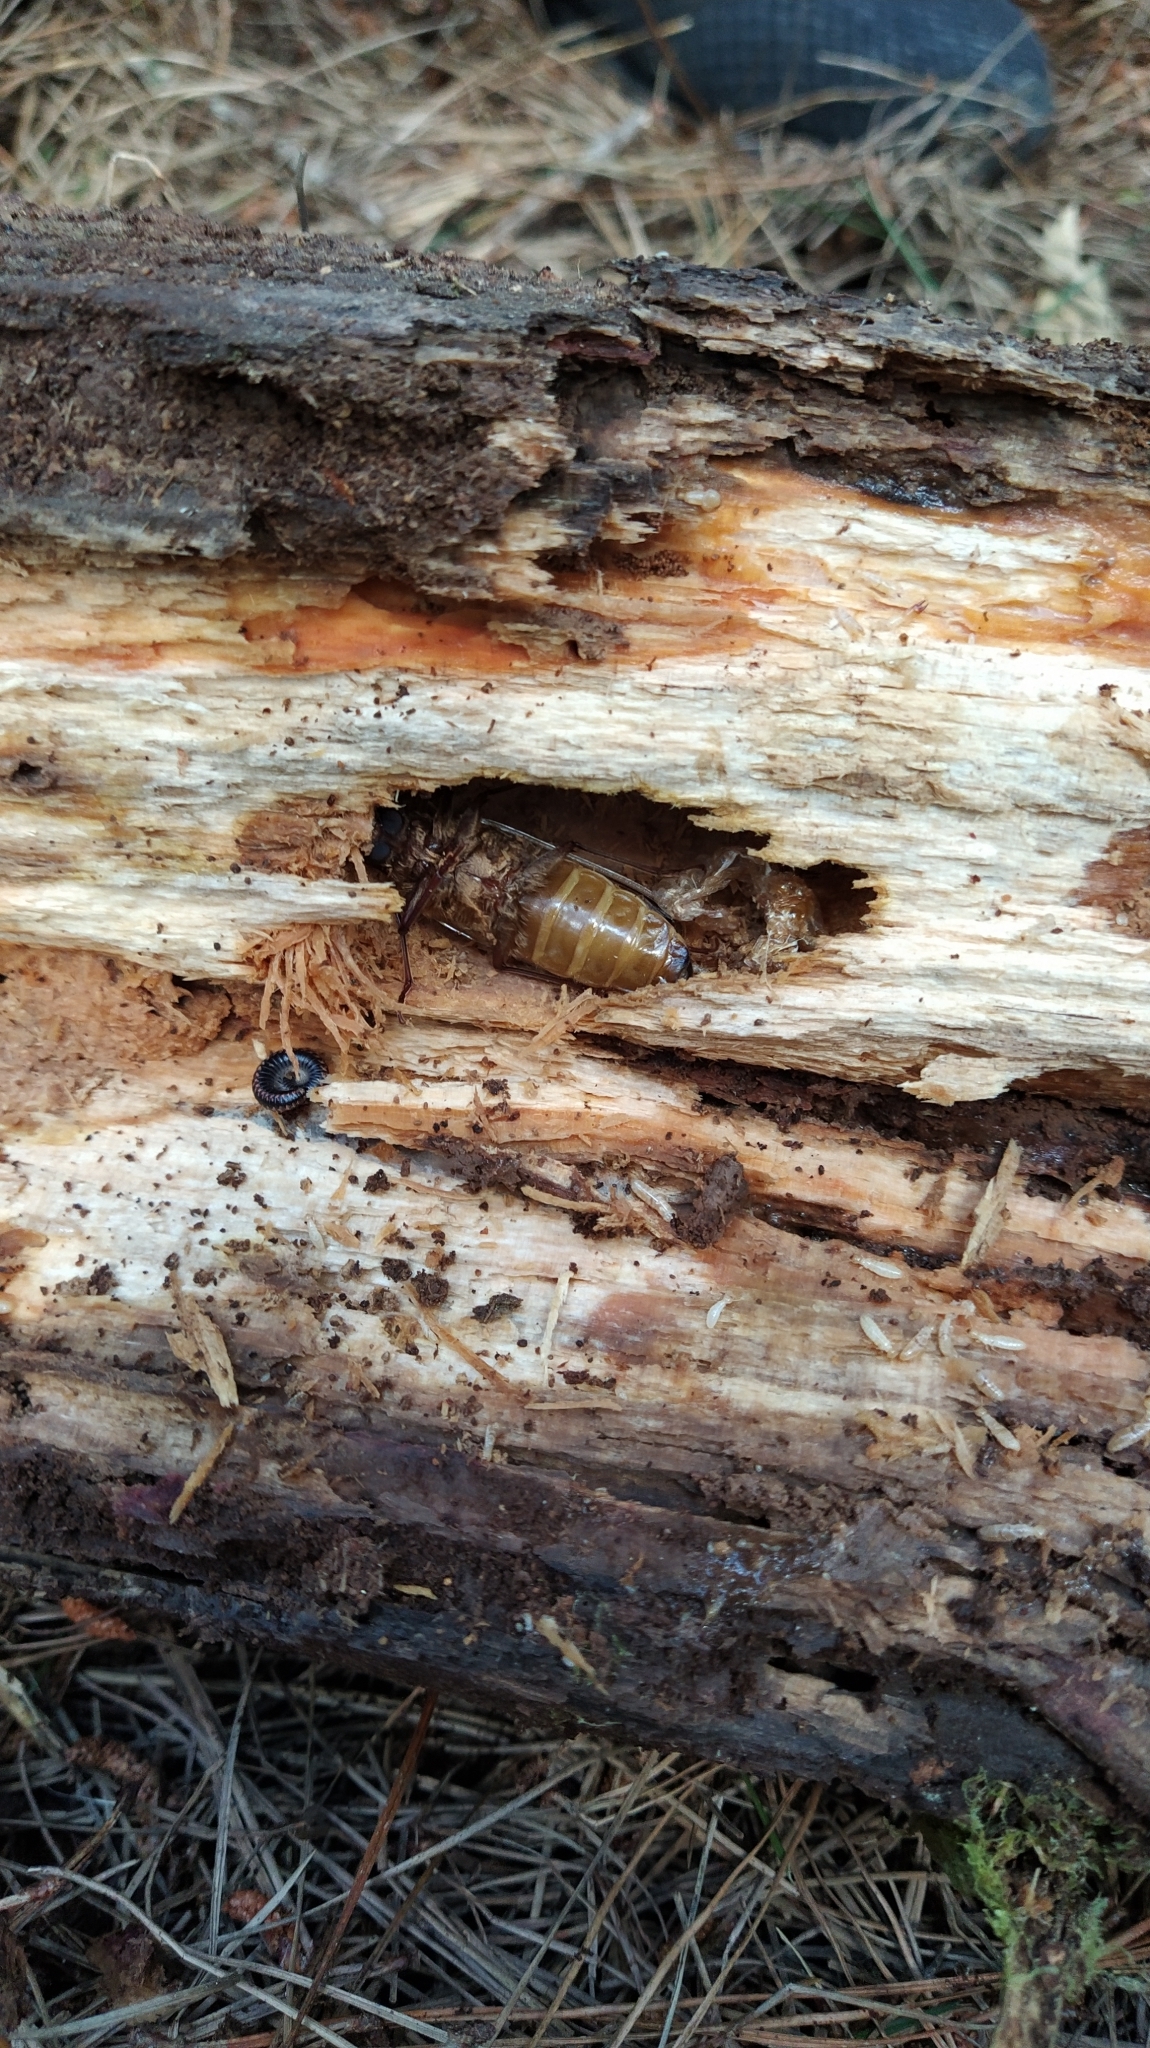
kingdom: Animalia
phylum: Arthropoda
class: Insecta
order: Coleoptera
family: Cerambycidae
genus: Prionoplus
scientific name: Prionoplus reticularis
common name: Huhu beetle
